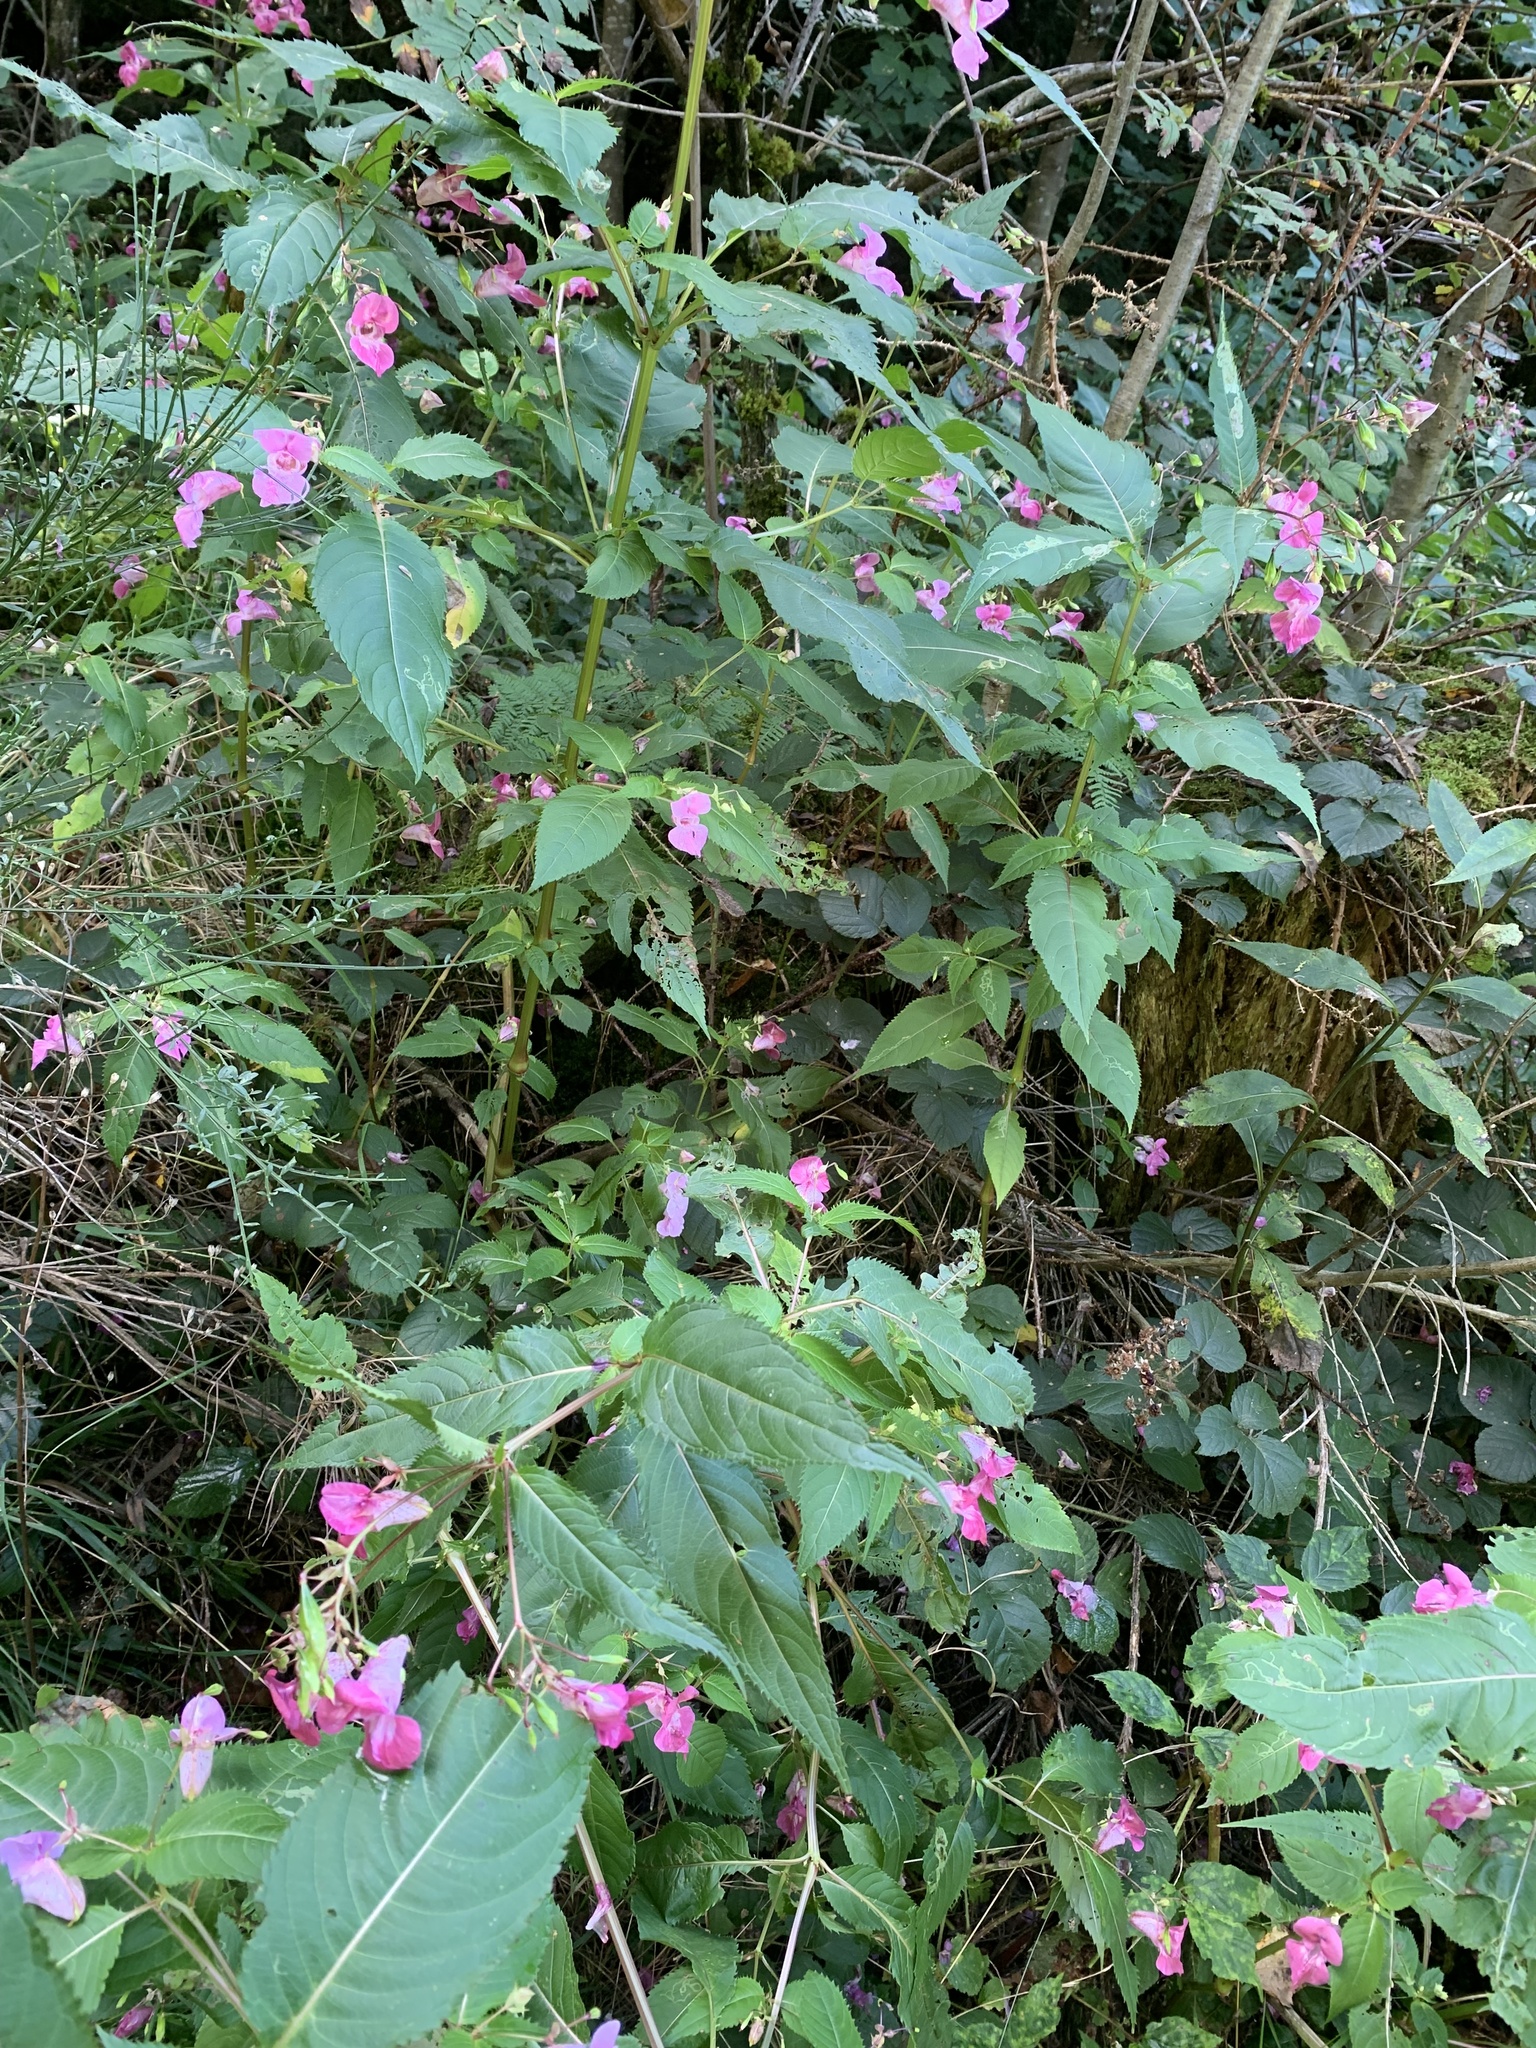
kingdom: Plantae
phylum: Tracheophyta
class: Magnoliopsida
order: Ericales
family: Balsaminaceae
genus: Impatiens
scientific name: Impatiens glandulifera
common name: Himalayan balsam
